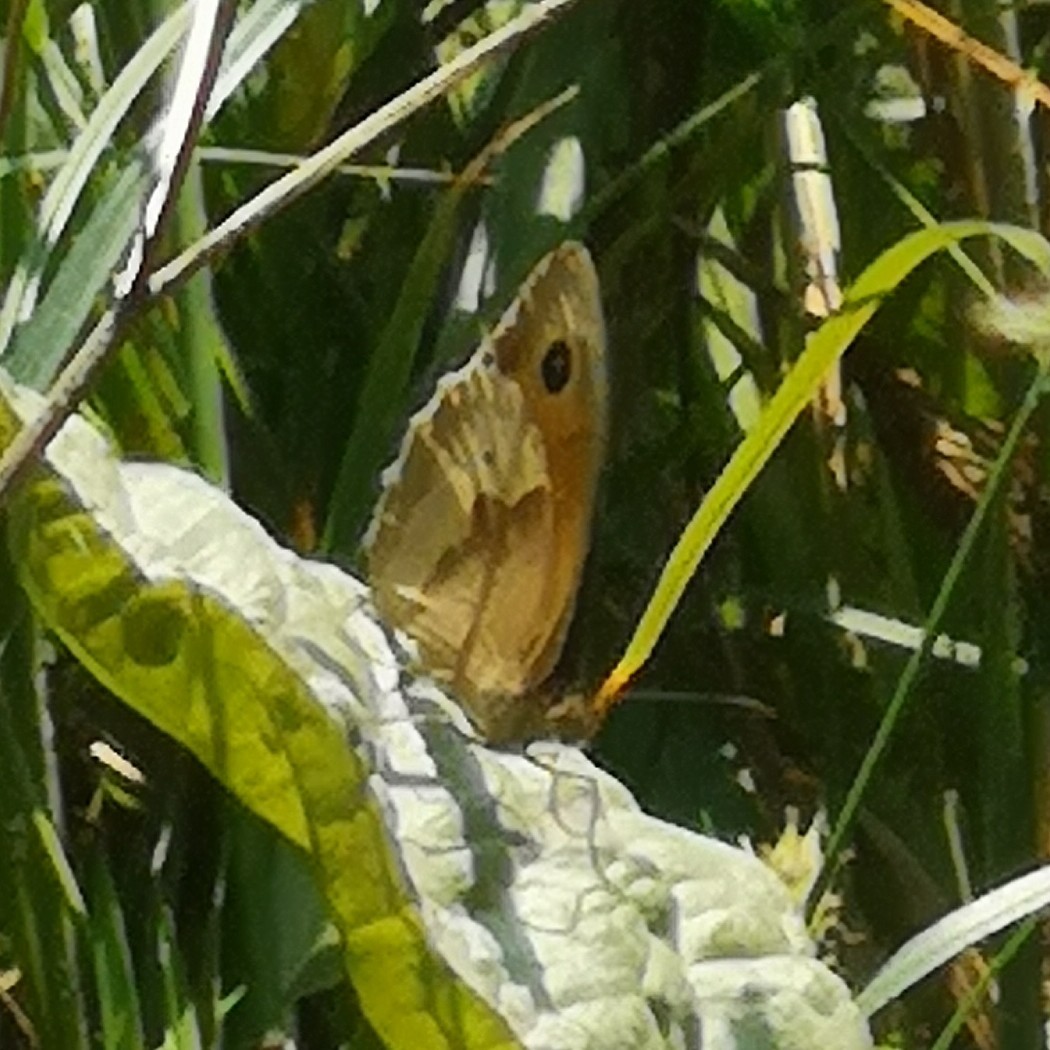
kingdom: Animalia
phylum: Arthropoda
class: Insecta
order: Lepidoptera
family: Nymphalidae
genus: Maniola
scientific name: Maniola jurtina
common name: Meadow brown
